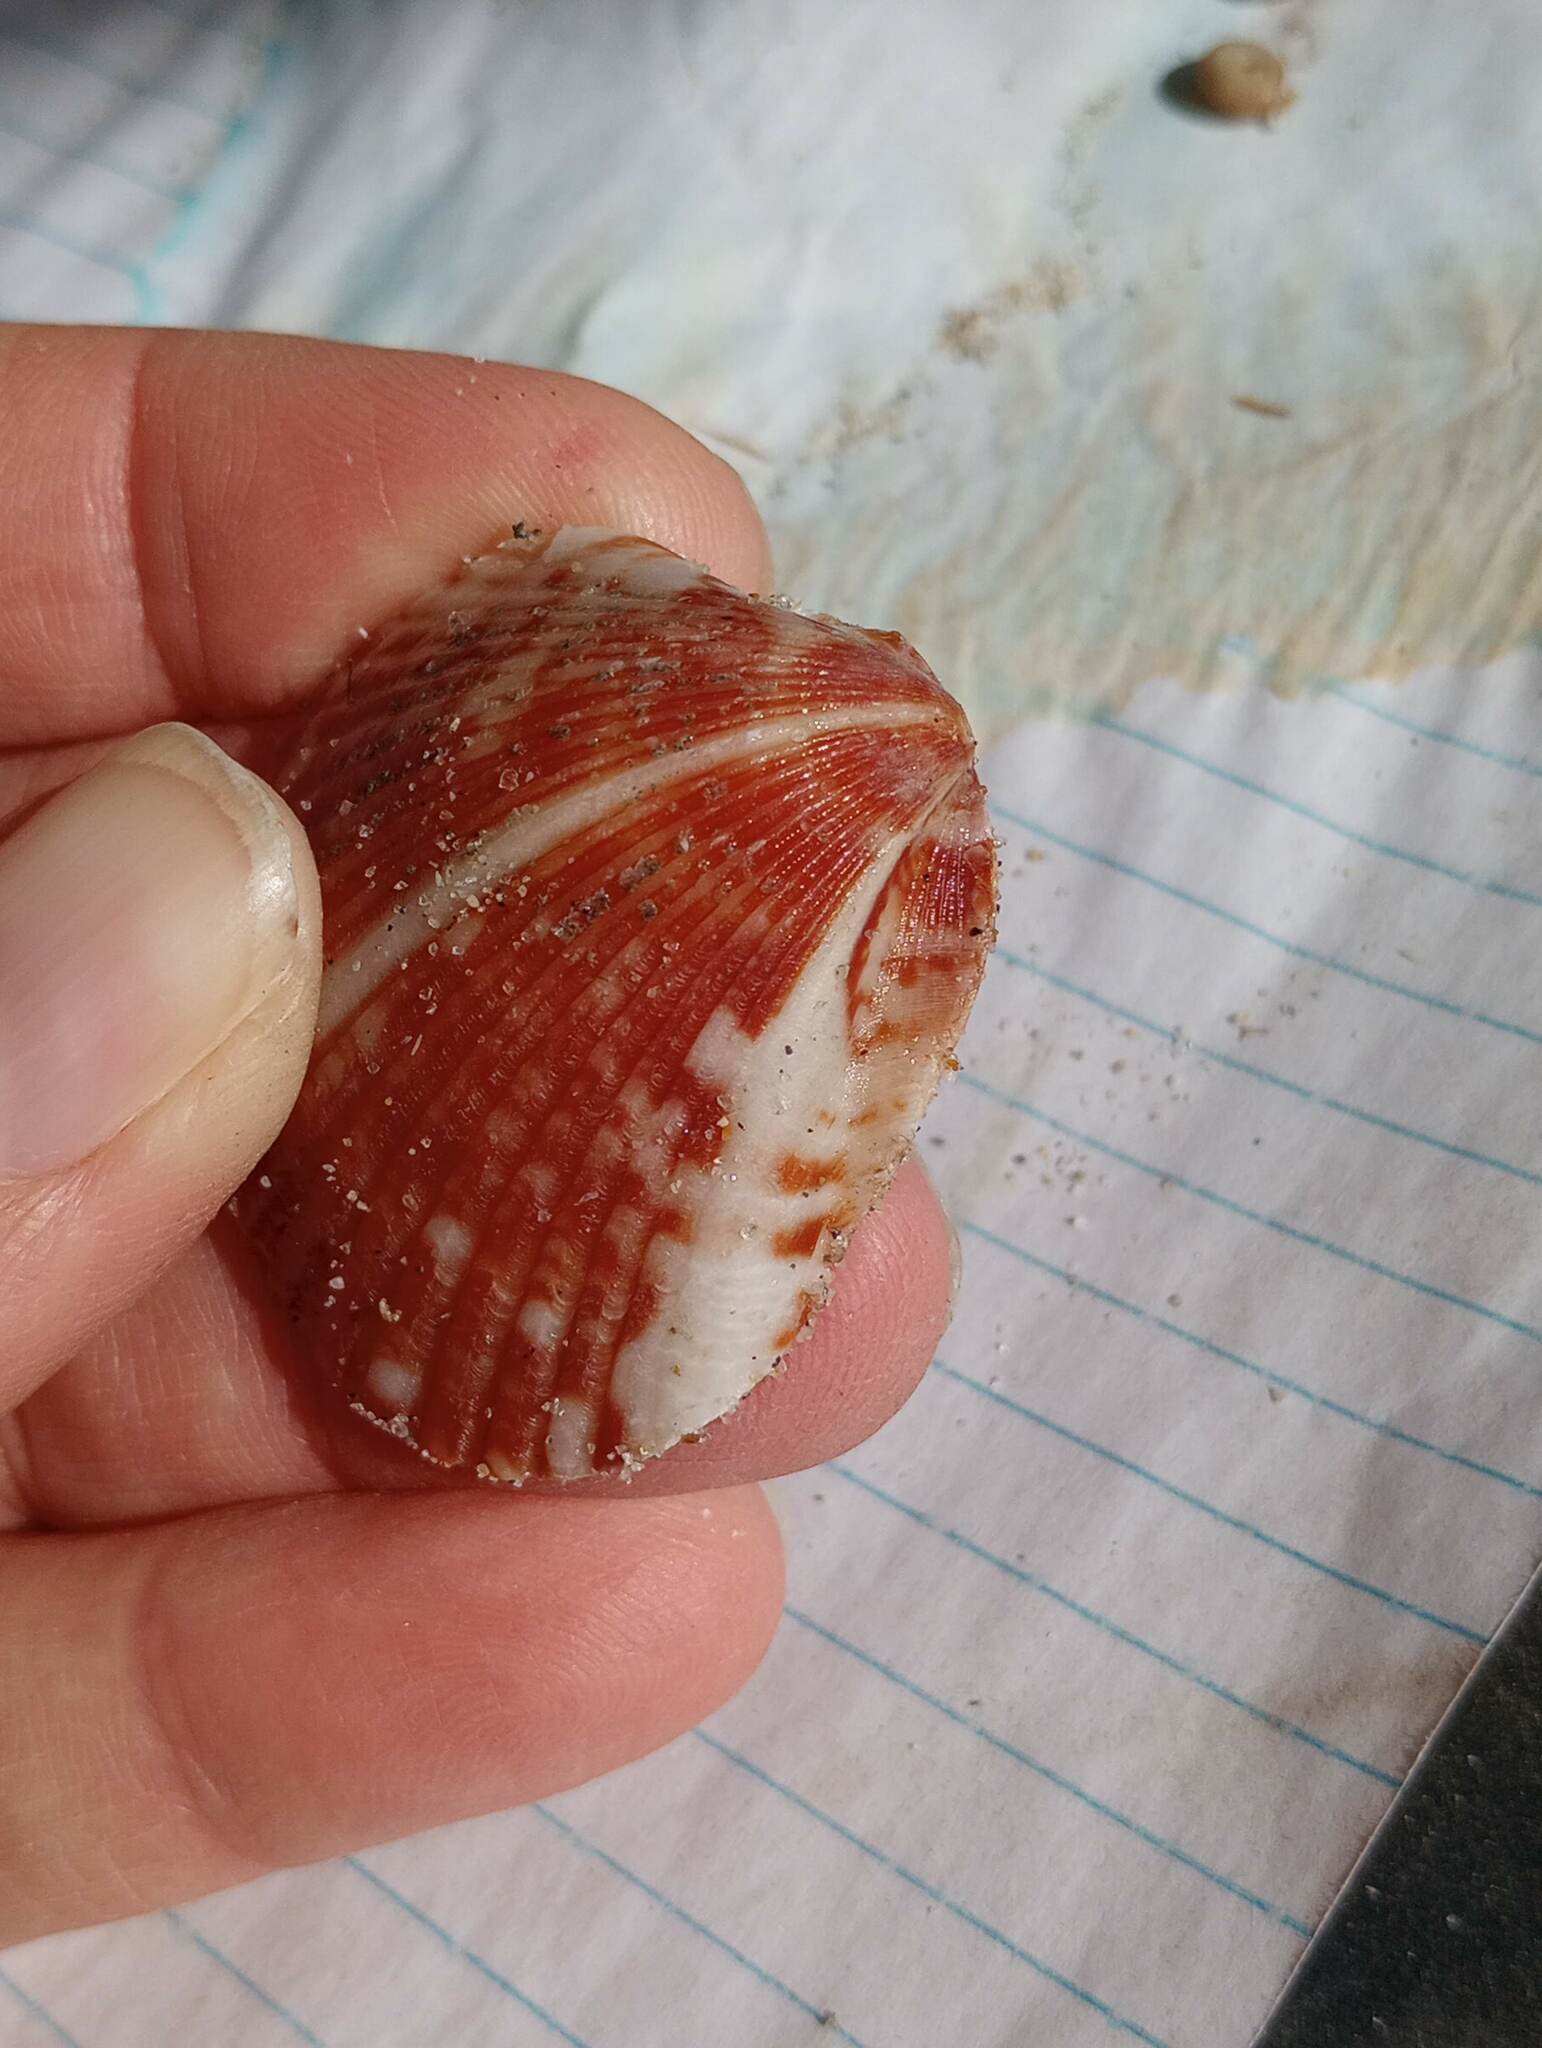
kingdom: Animalia
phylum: Mollusca
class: Bivalvia
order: Pectinida
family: Pectinidae
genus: Argopecten
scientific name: Argopecten ventricosus
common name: Catarina scallop
